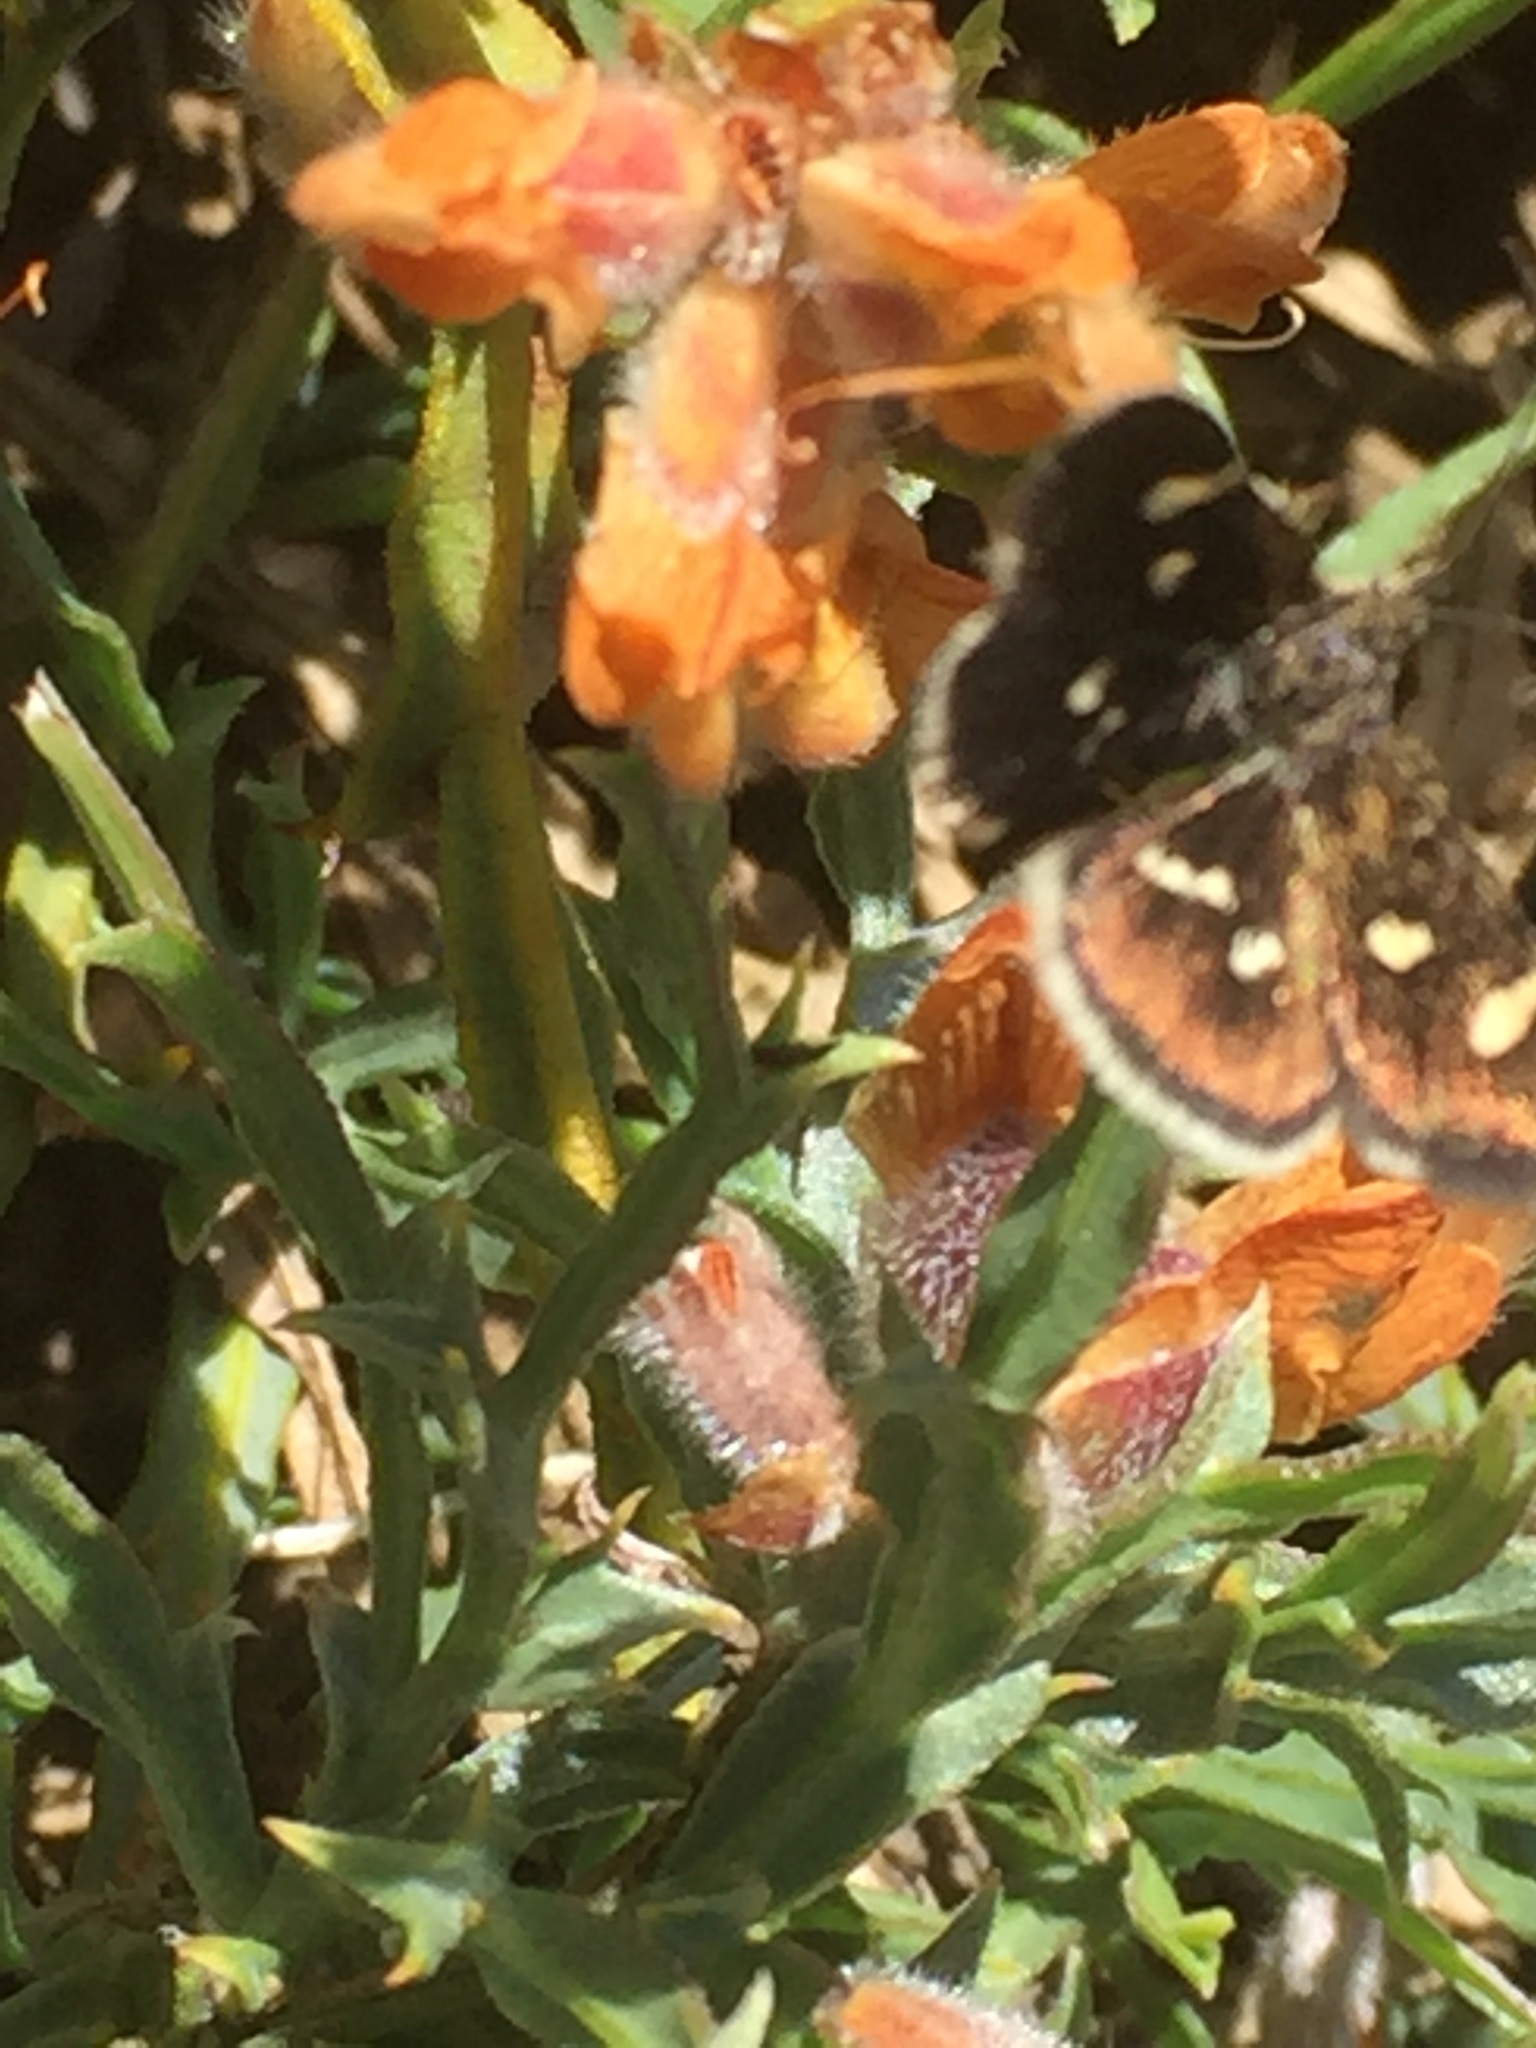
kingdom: Plantae
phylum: Tracheophyta
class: Magnoliopsida
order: Fabales
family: Fabaceae
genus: Genista
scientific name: Genista tridentata
